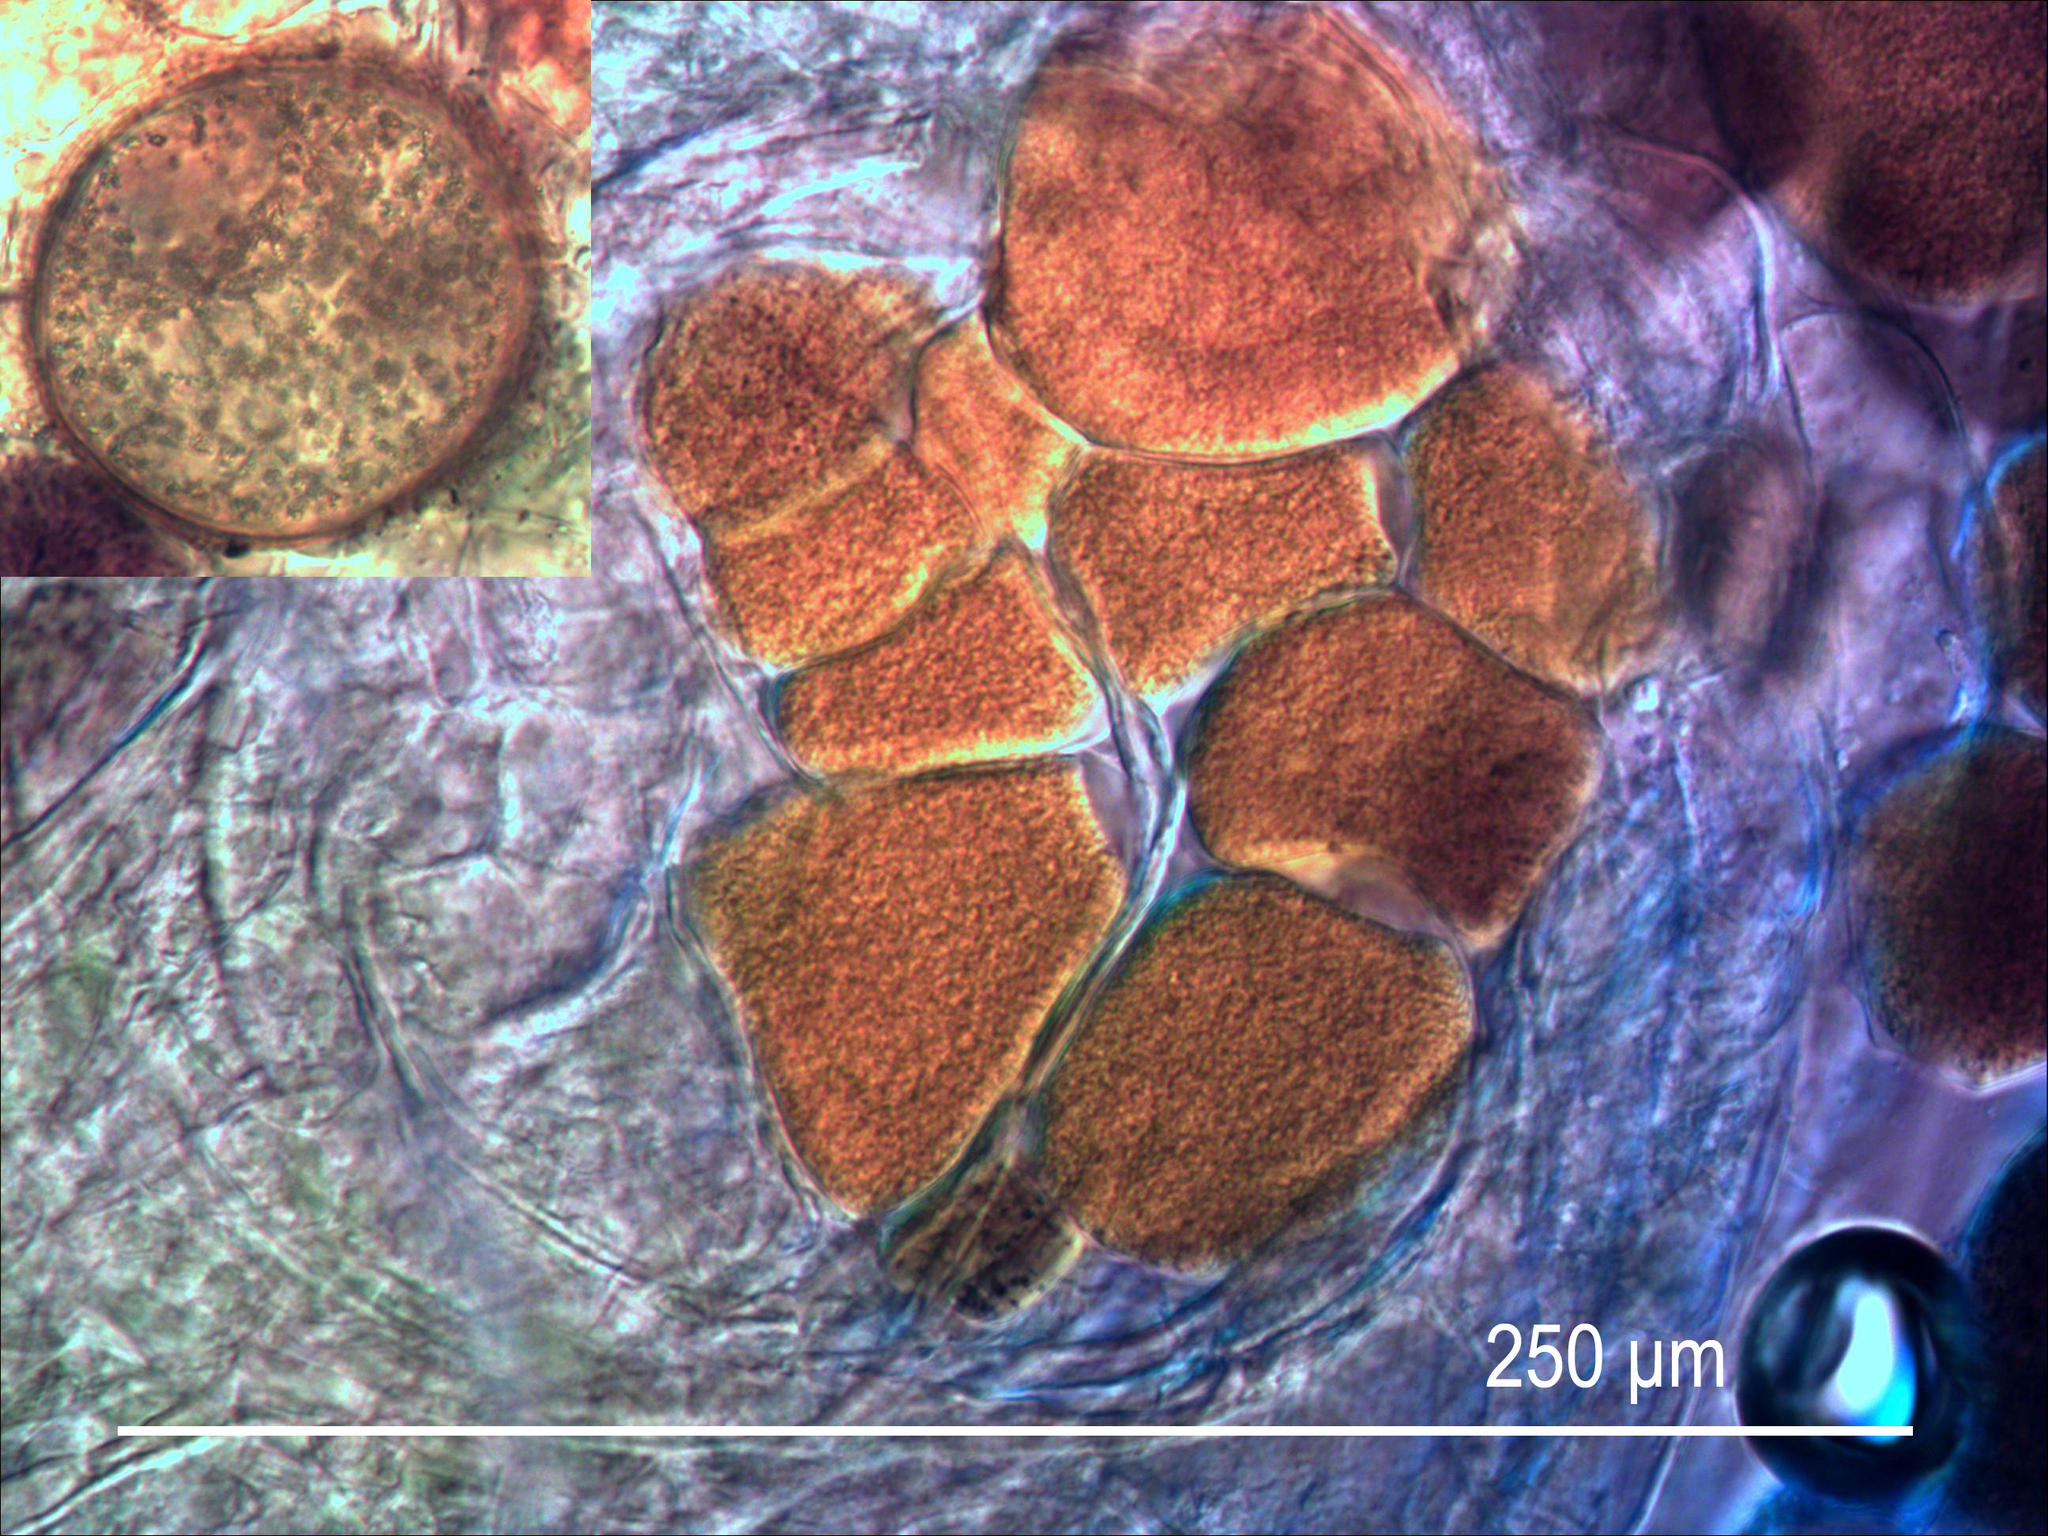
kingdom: Fungi
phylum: Chytridiomycota
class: Chytridiomycetes
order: Chytridiales
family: Synchytriaceae
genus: Synchytrium
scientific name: Synchytrium taraxaci
